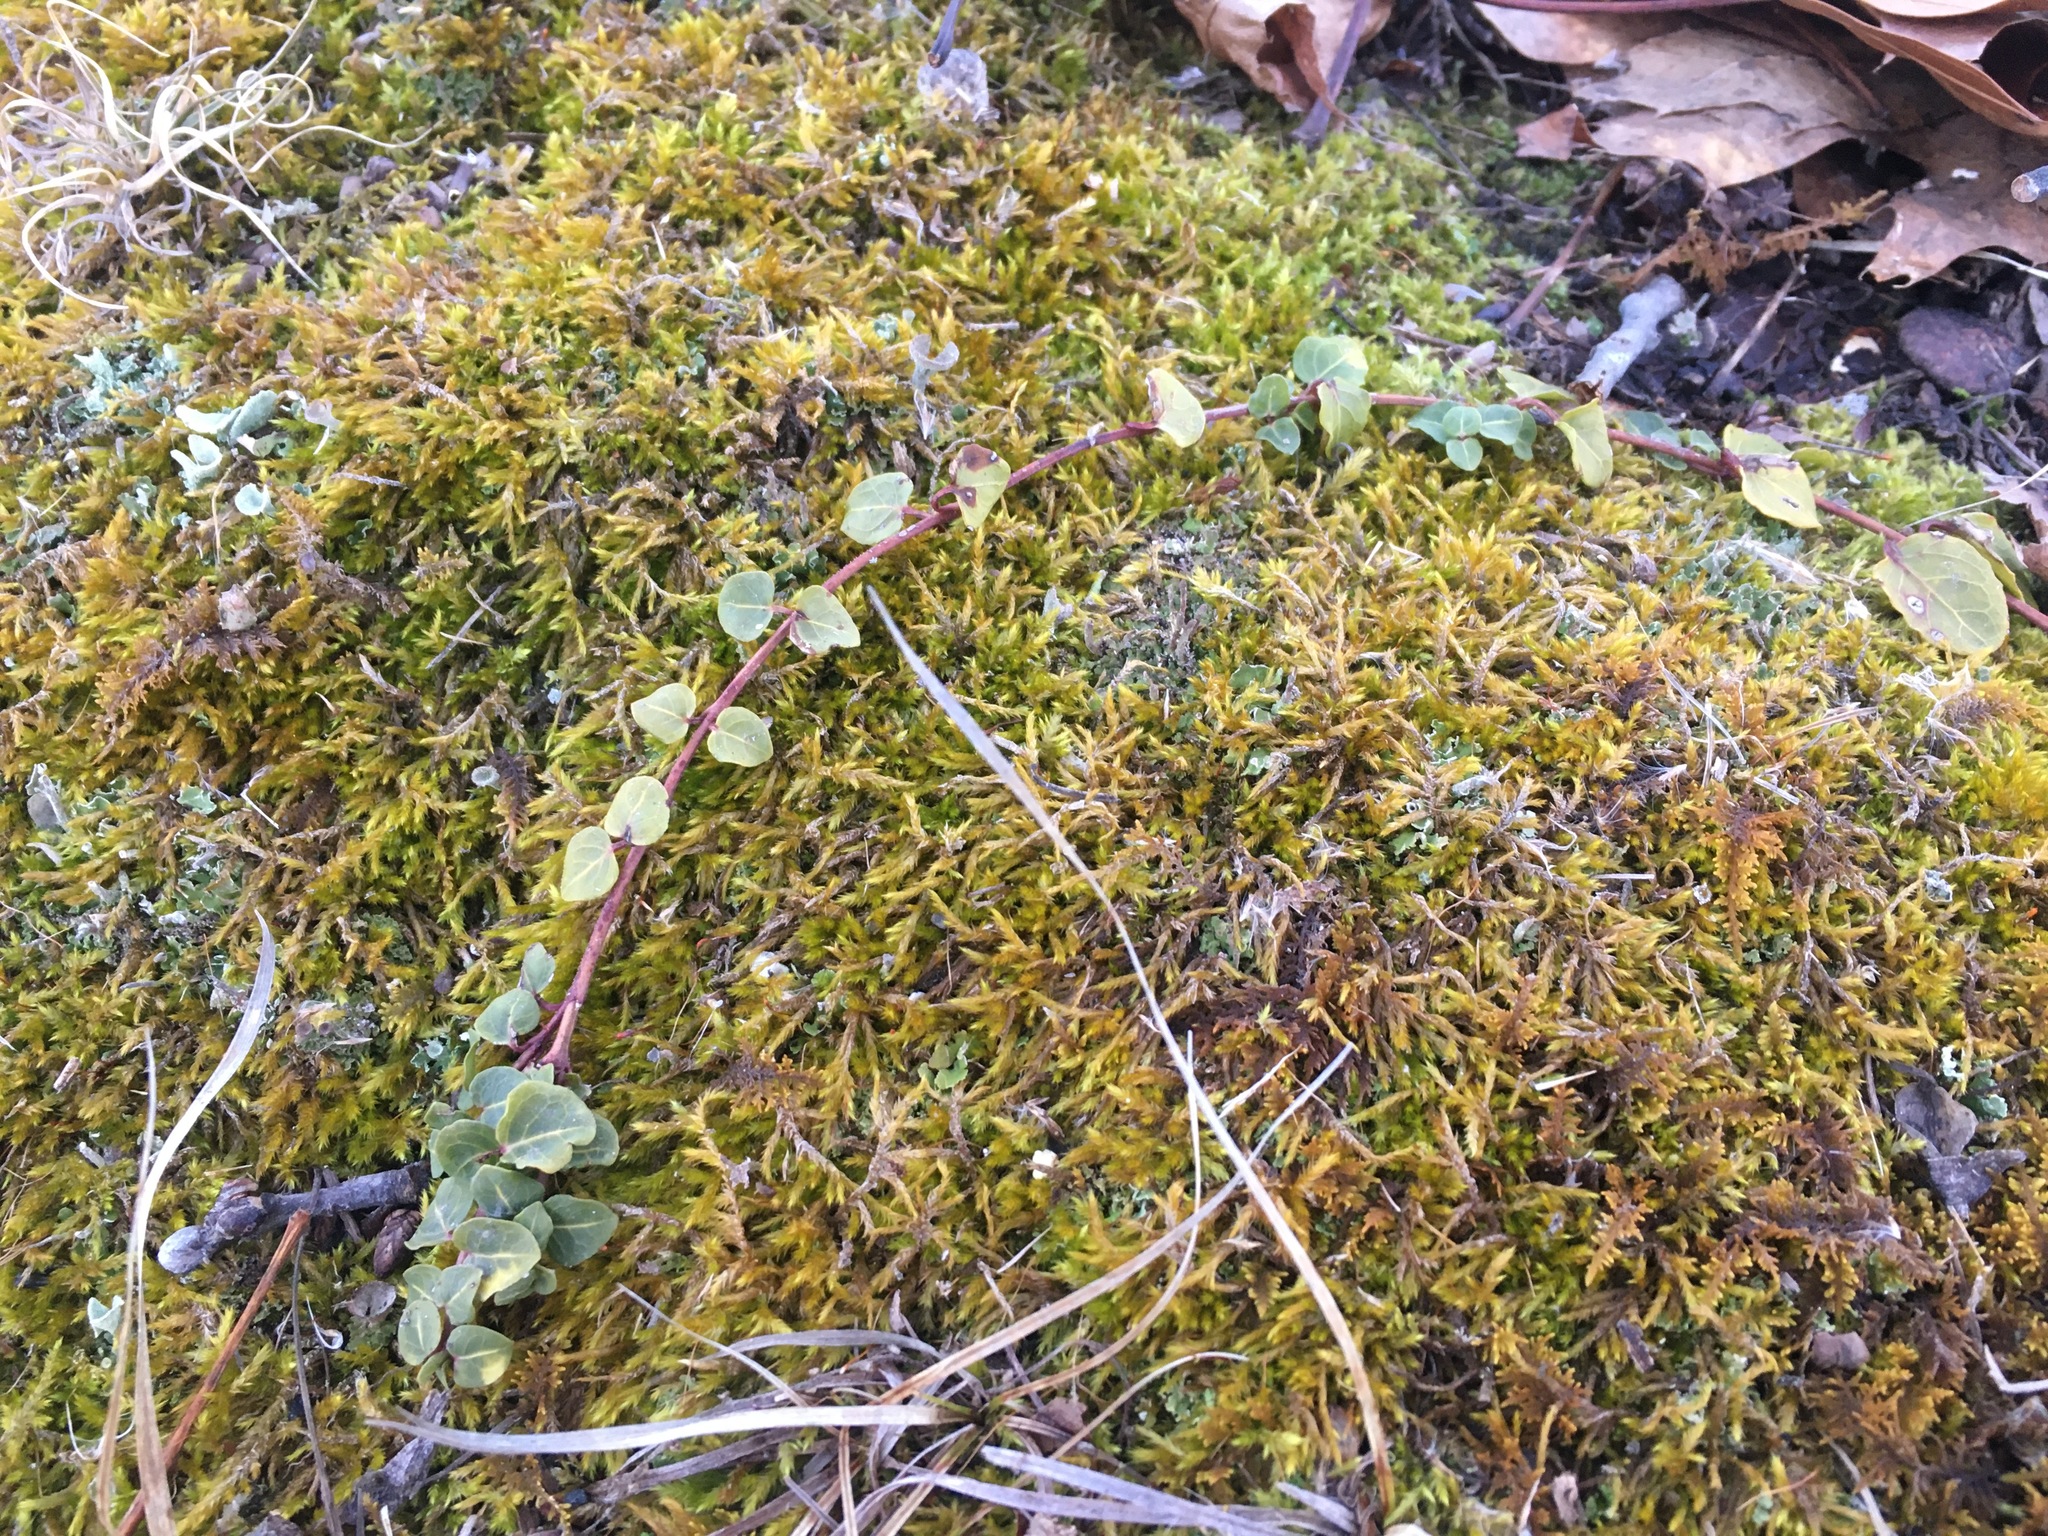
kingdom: Plantae
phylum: Tracheophyta
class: Magnoliopsida
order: Gentianales
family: Rubiaceae
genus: Mitchella
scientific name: Mitchella repens
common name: Partridge-berry
